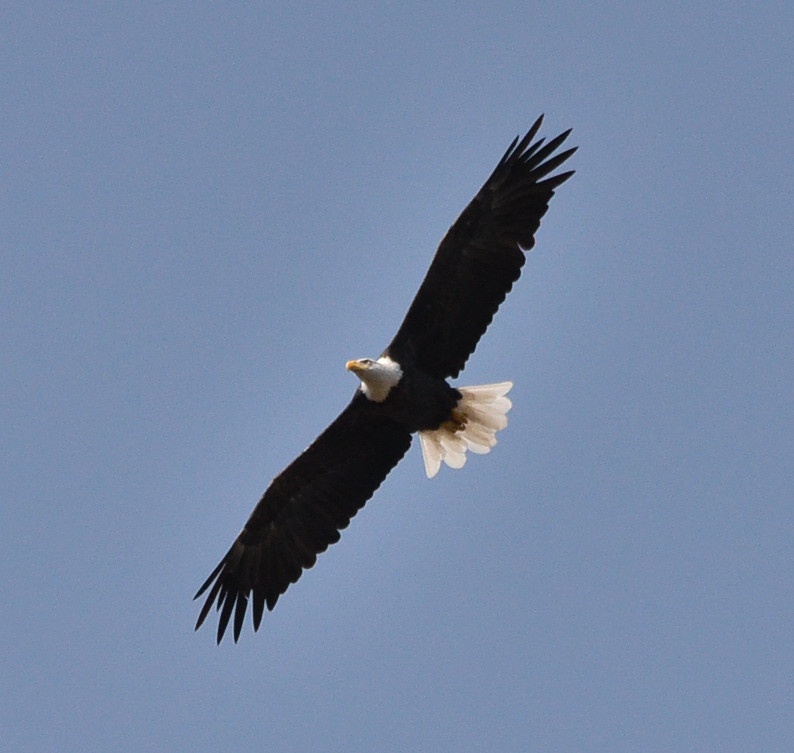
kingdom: Animalia
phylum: Chordata
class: Aves
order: Accipitriformes
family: Accipitridae
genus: Haliaeetus
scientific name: Haliaeetus leucocephalus
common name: Bald eagle
